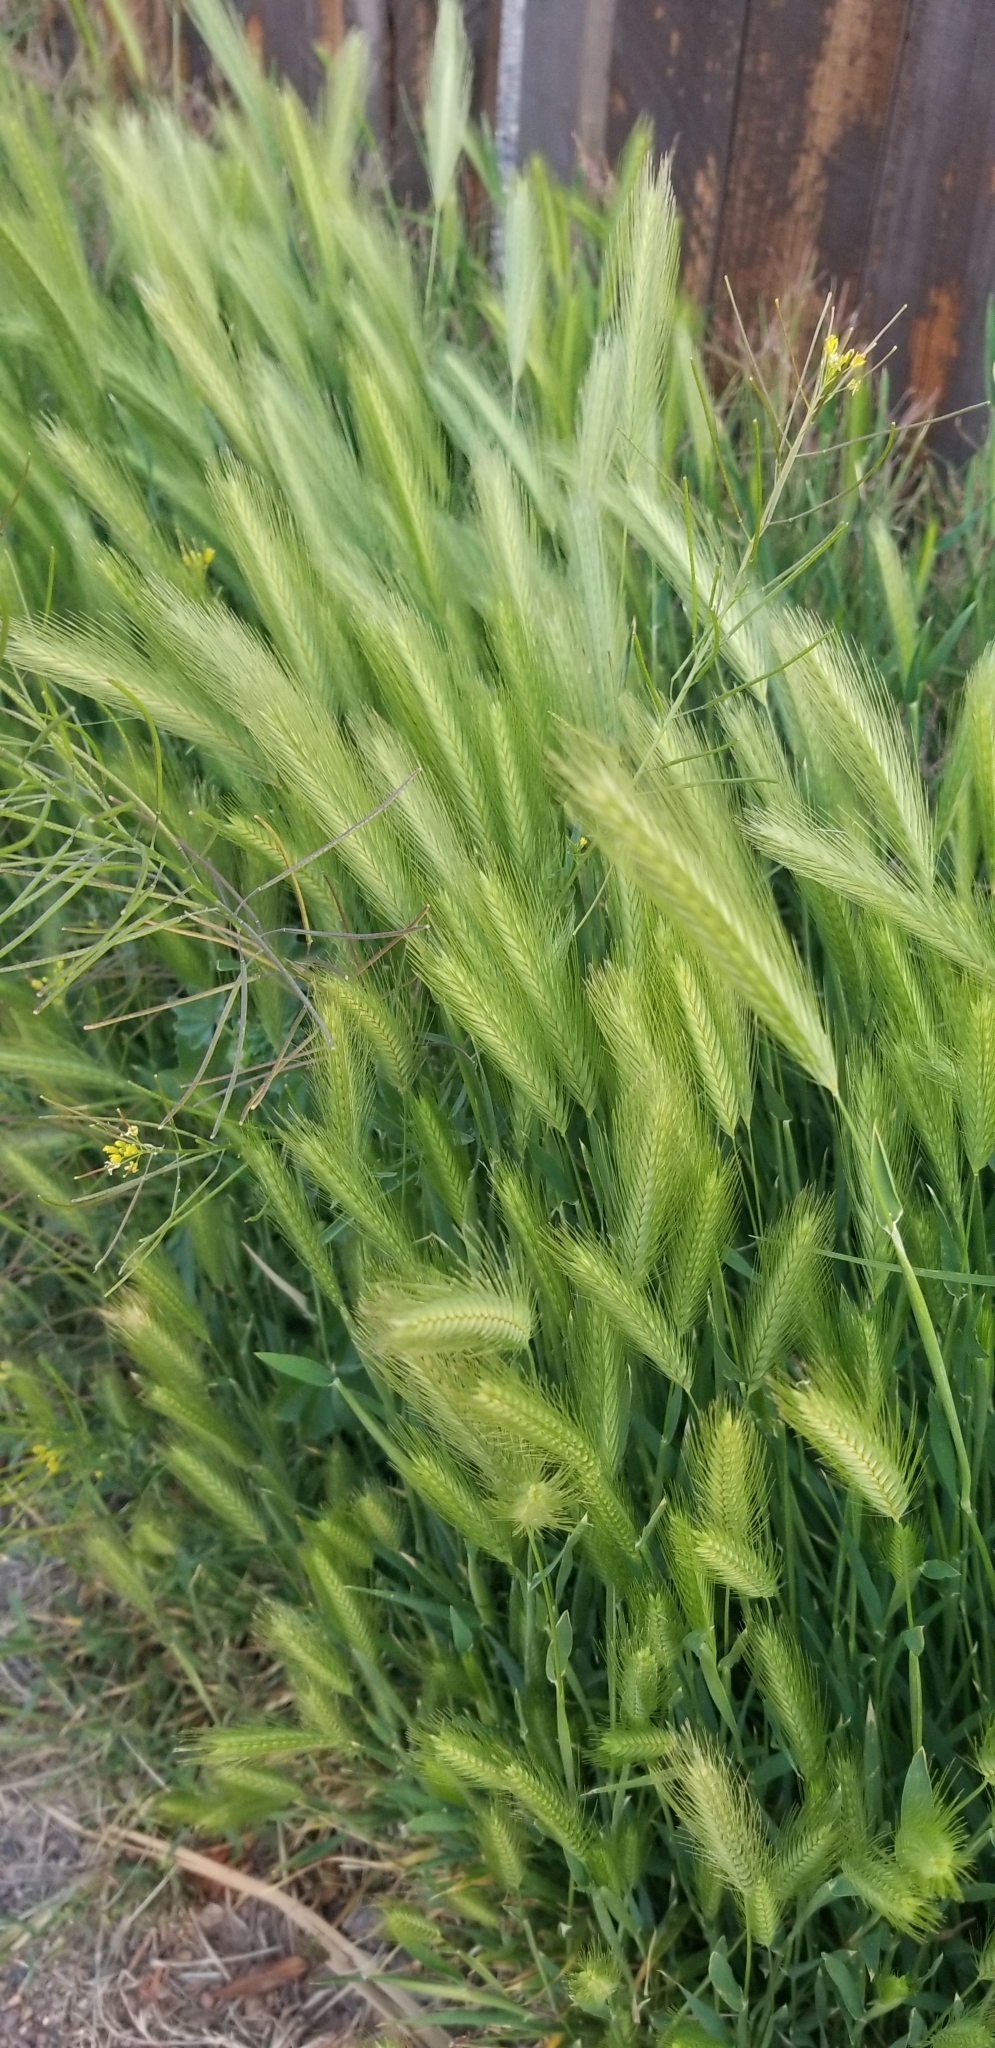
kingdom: Plantae
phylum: Tracheophyta
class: Liliopsida
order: Poales
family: Poaceae
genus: Hordeum
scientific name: Hordeum murinum
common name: Wall barley
